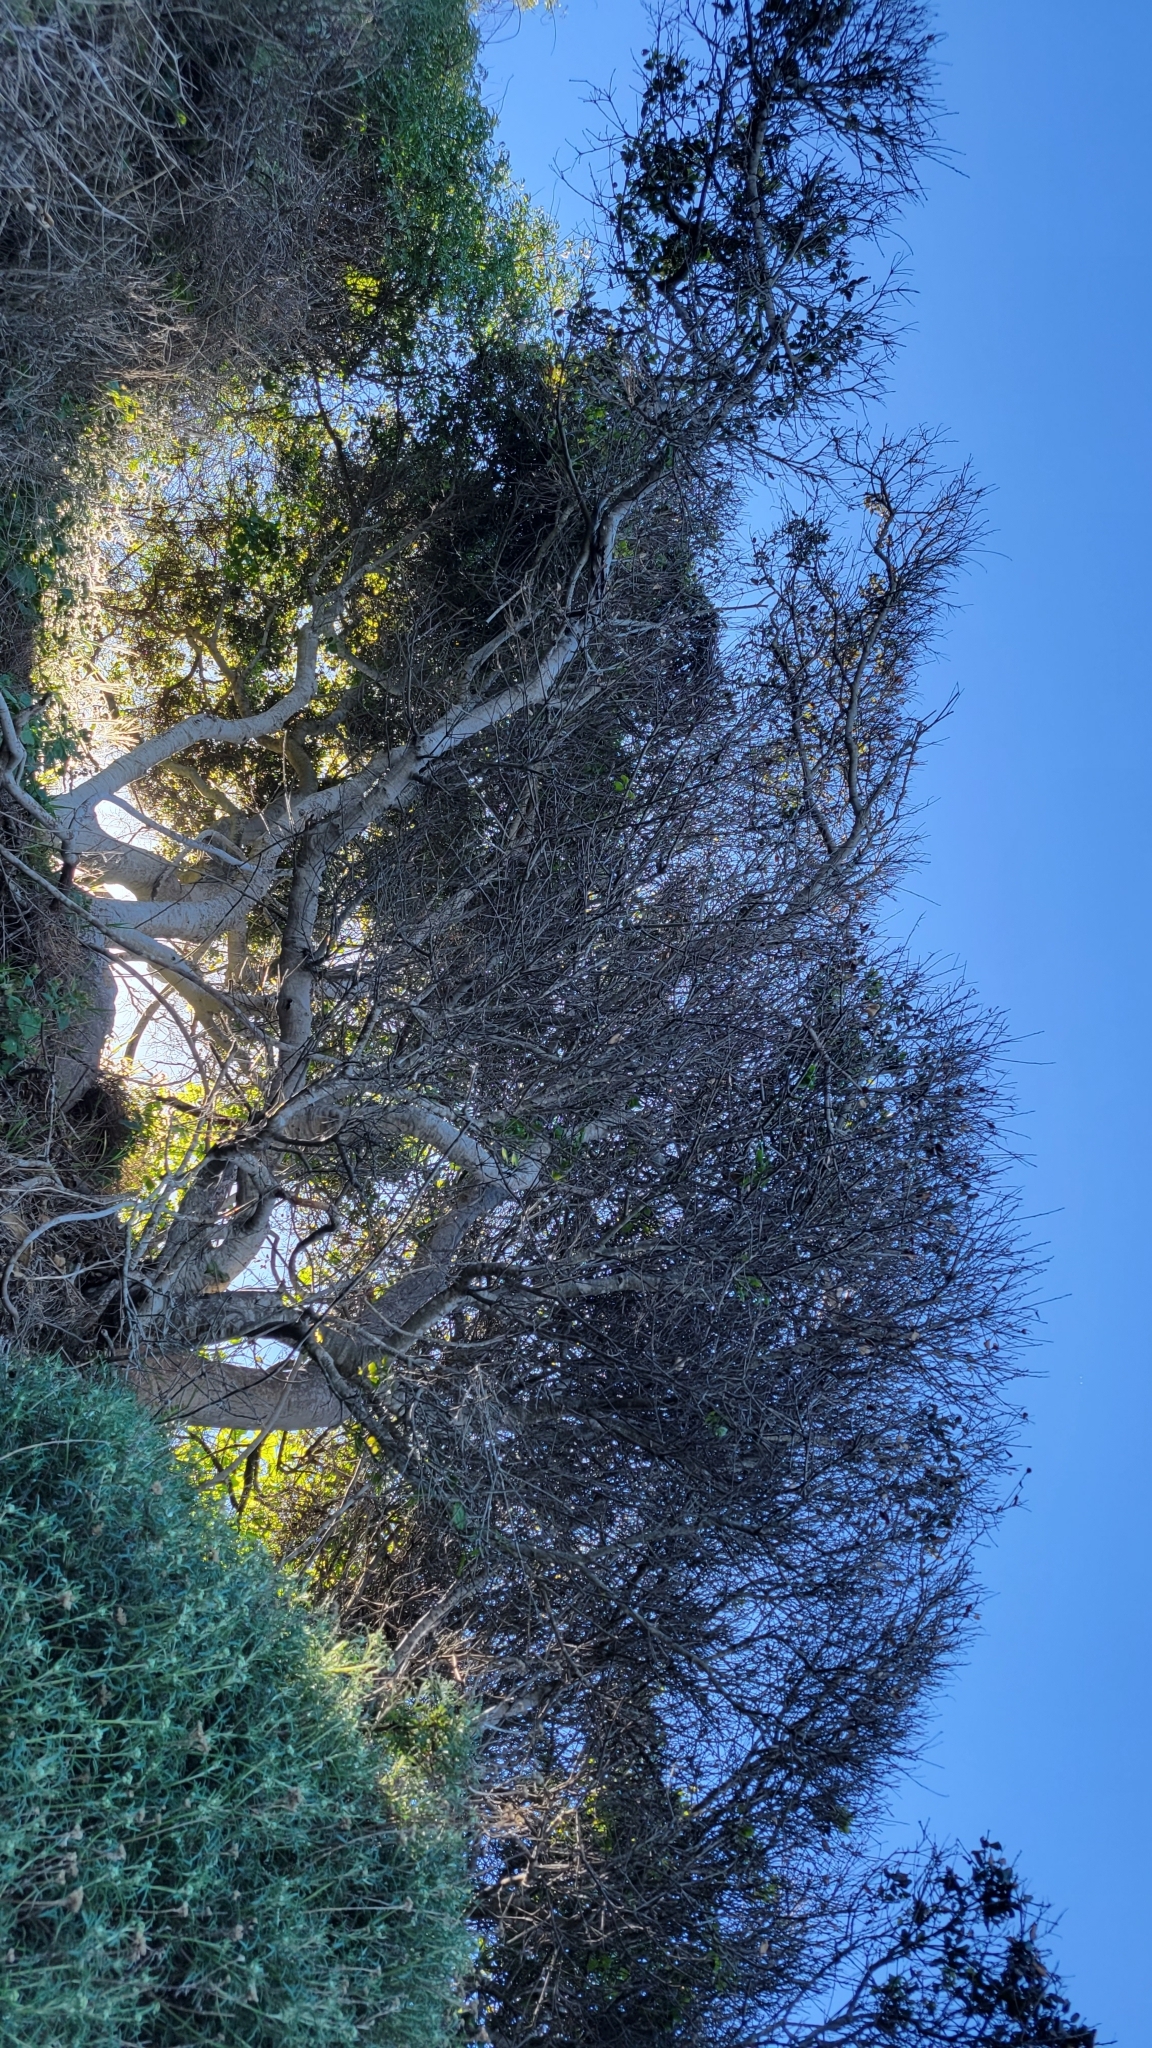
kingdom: Plantae
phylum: Tracheophyta
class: Magnoliopsida
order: Fagales
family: Fagaceae
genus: Quercus
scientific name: Quercus agrifolia
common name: California live oak
